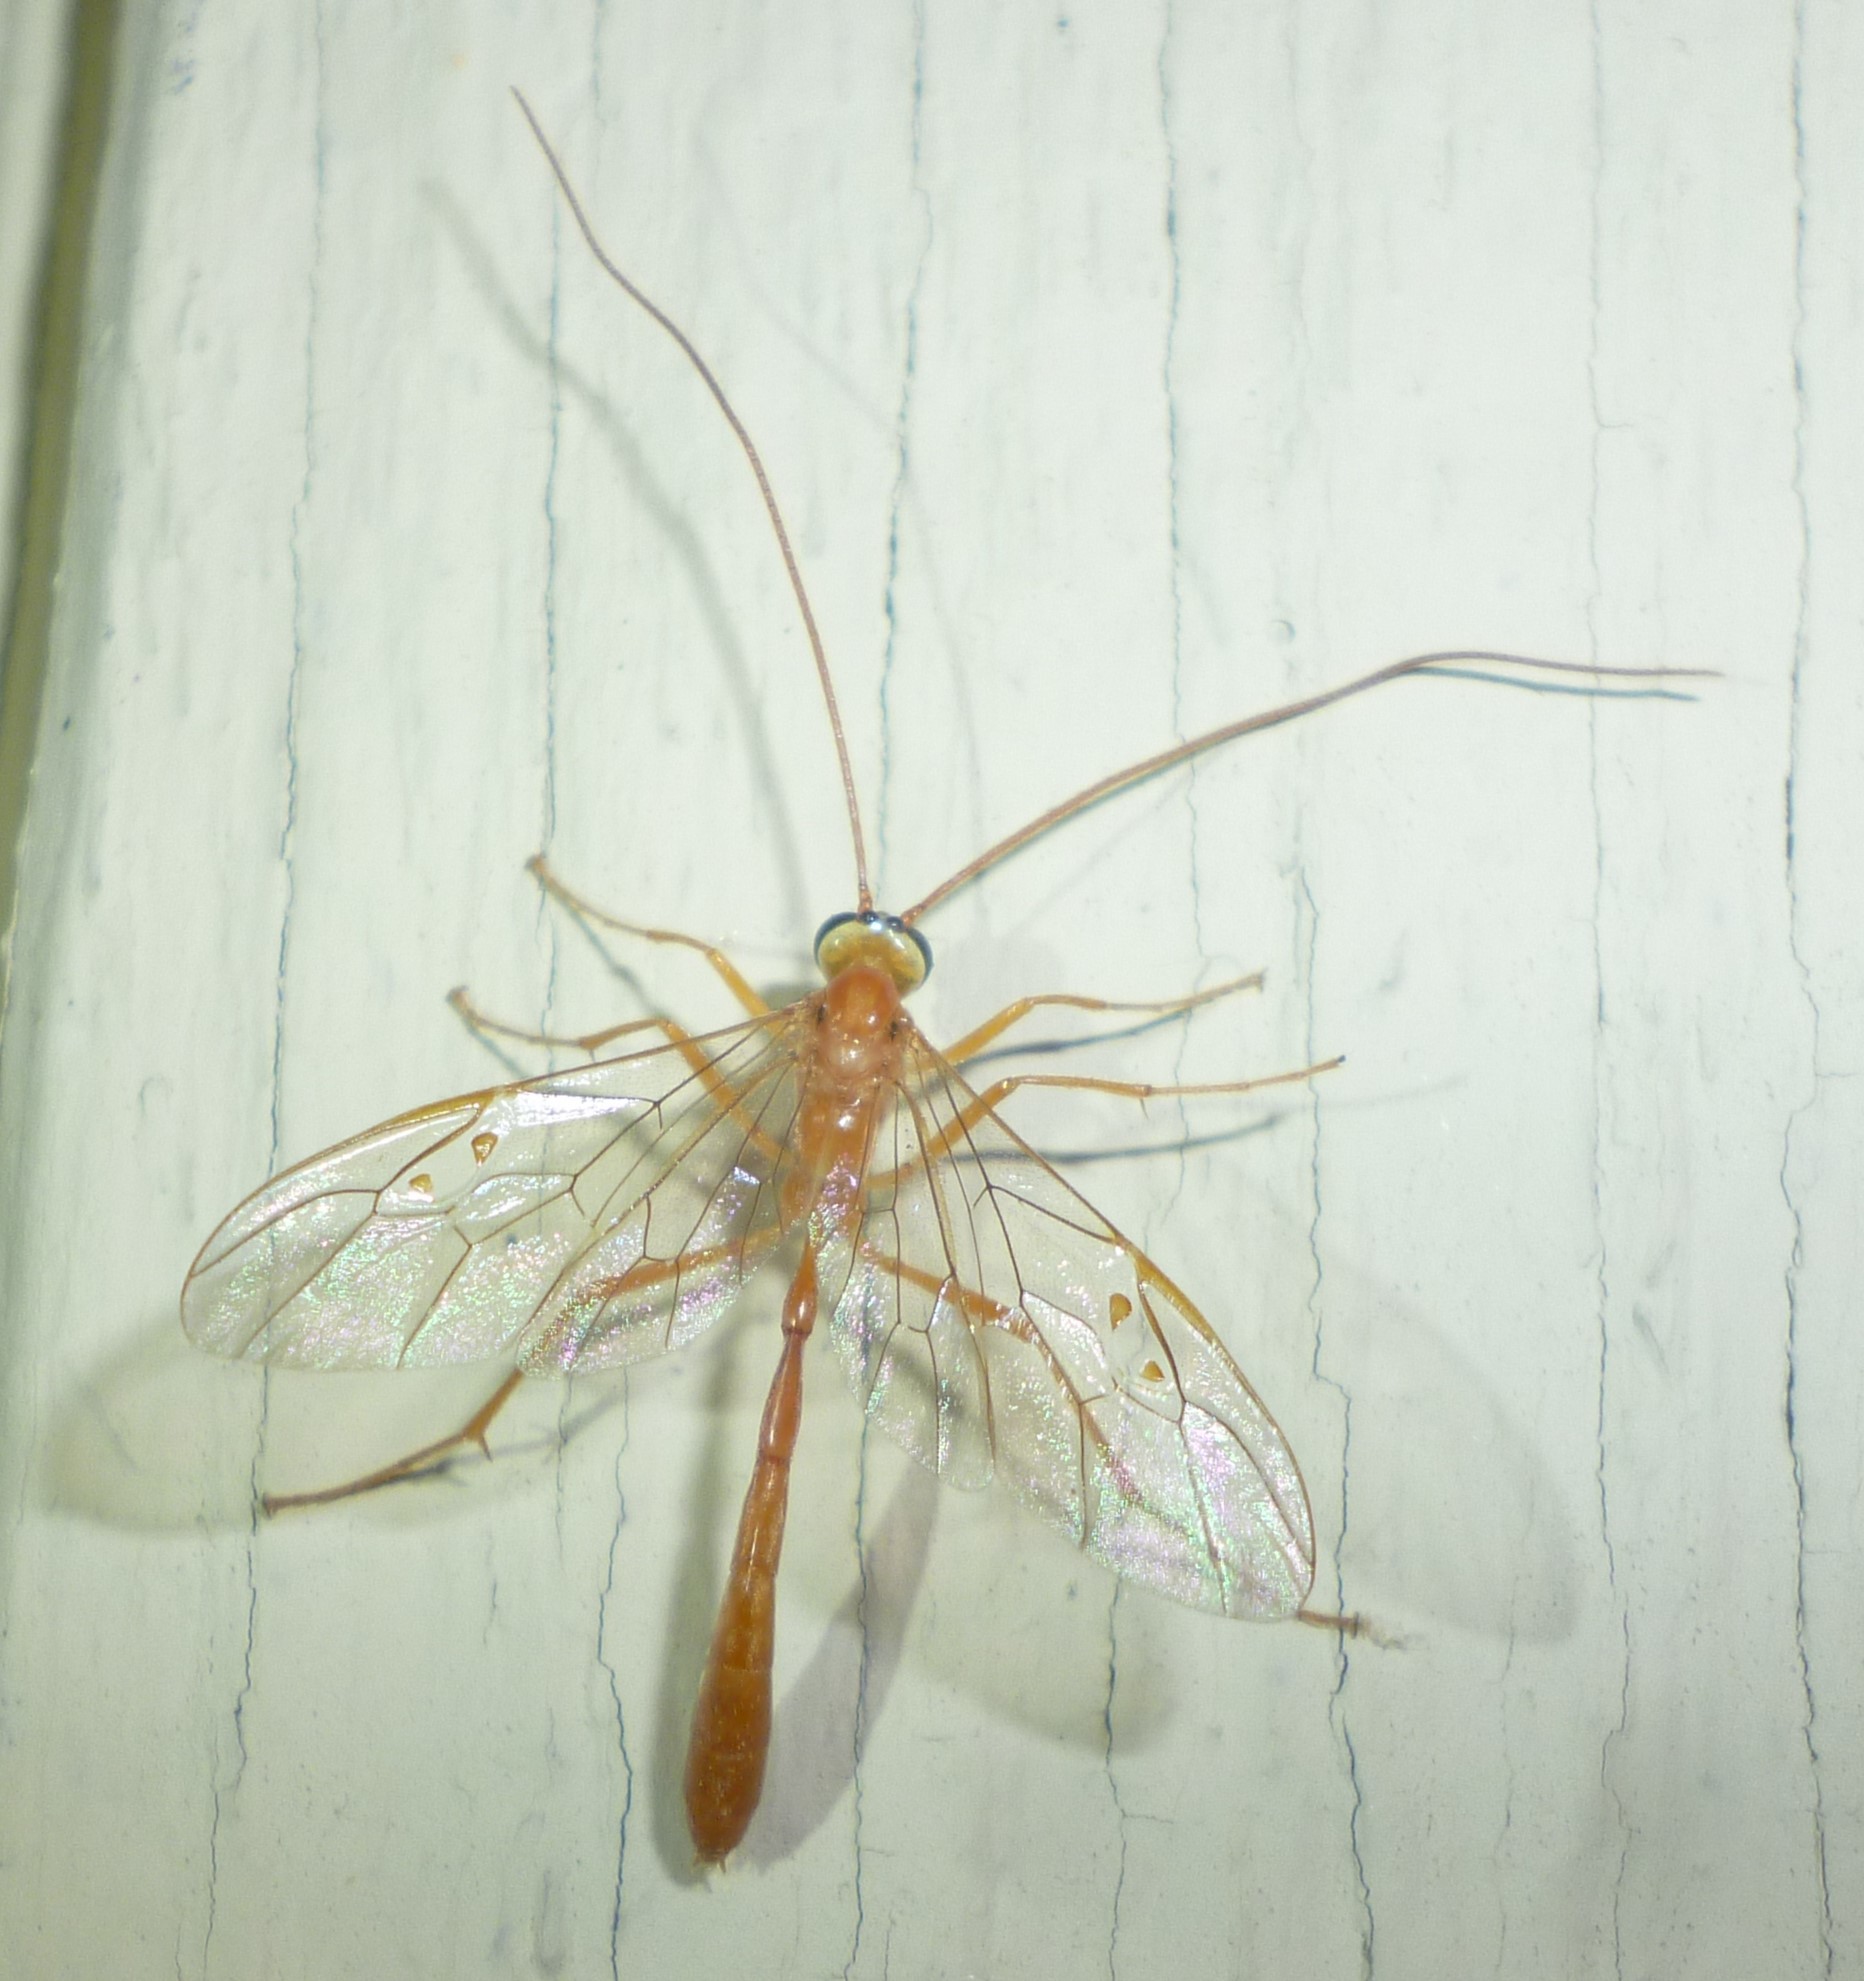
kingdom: Animalia
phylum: Arthropoda
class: Insecta
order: Hymenoptera
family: Ichneumonidae
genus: Enicospilus
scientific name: Enicospilus purgatus
